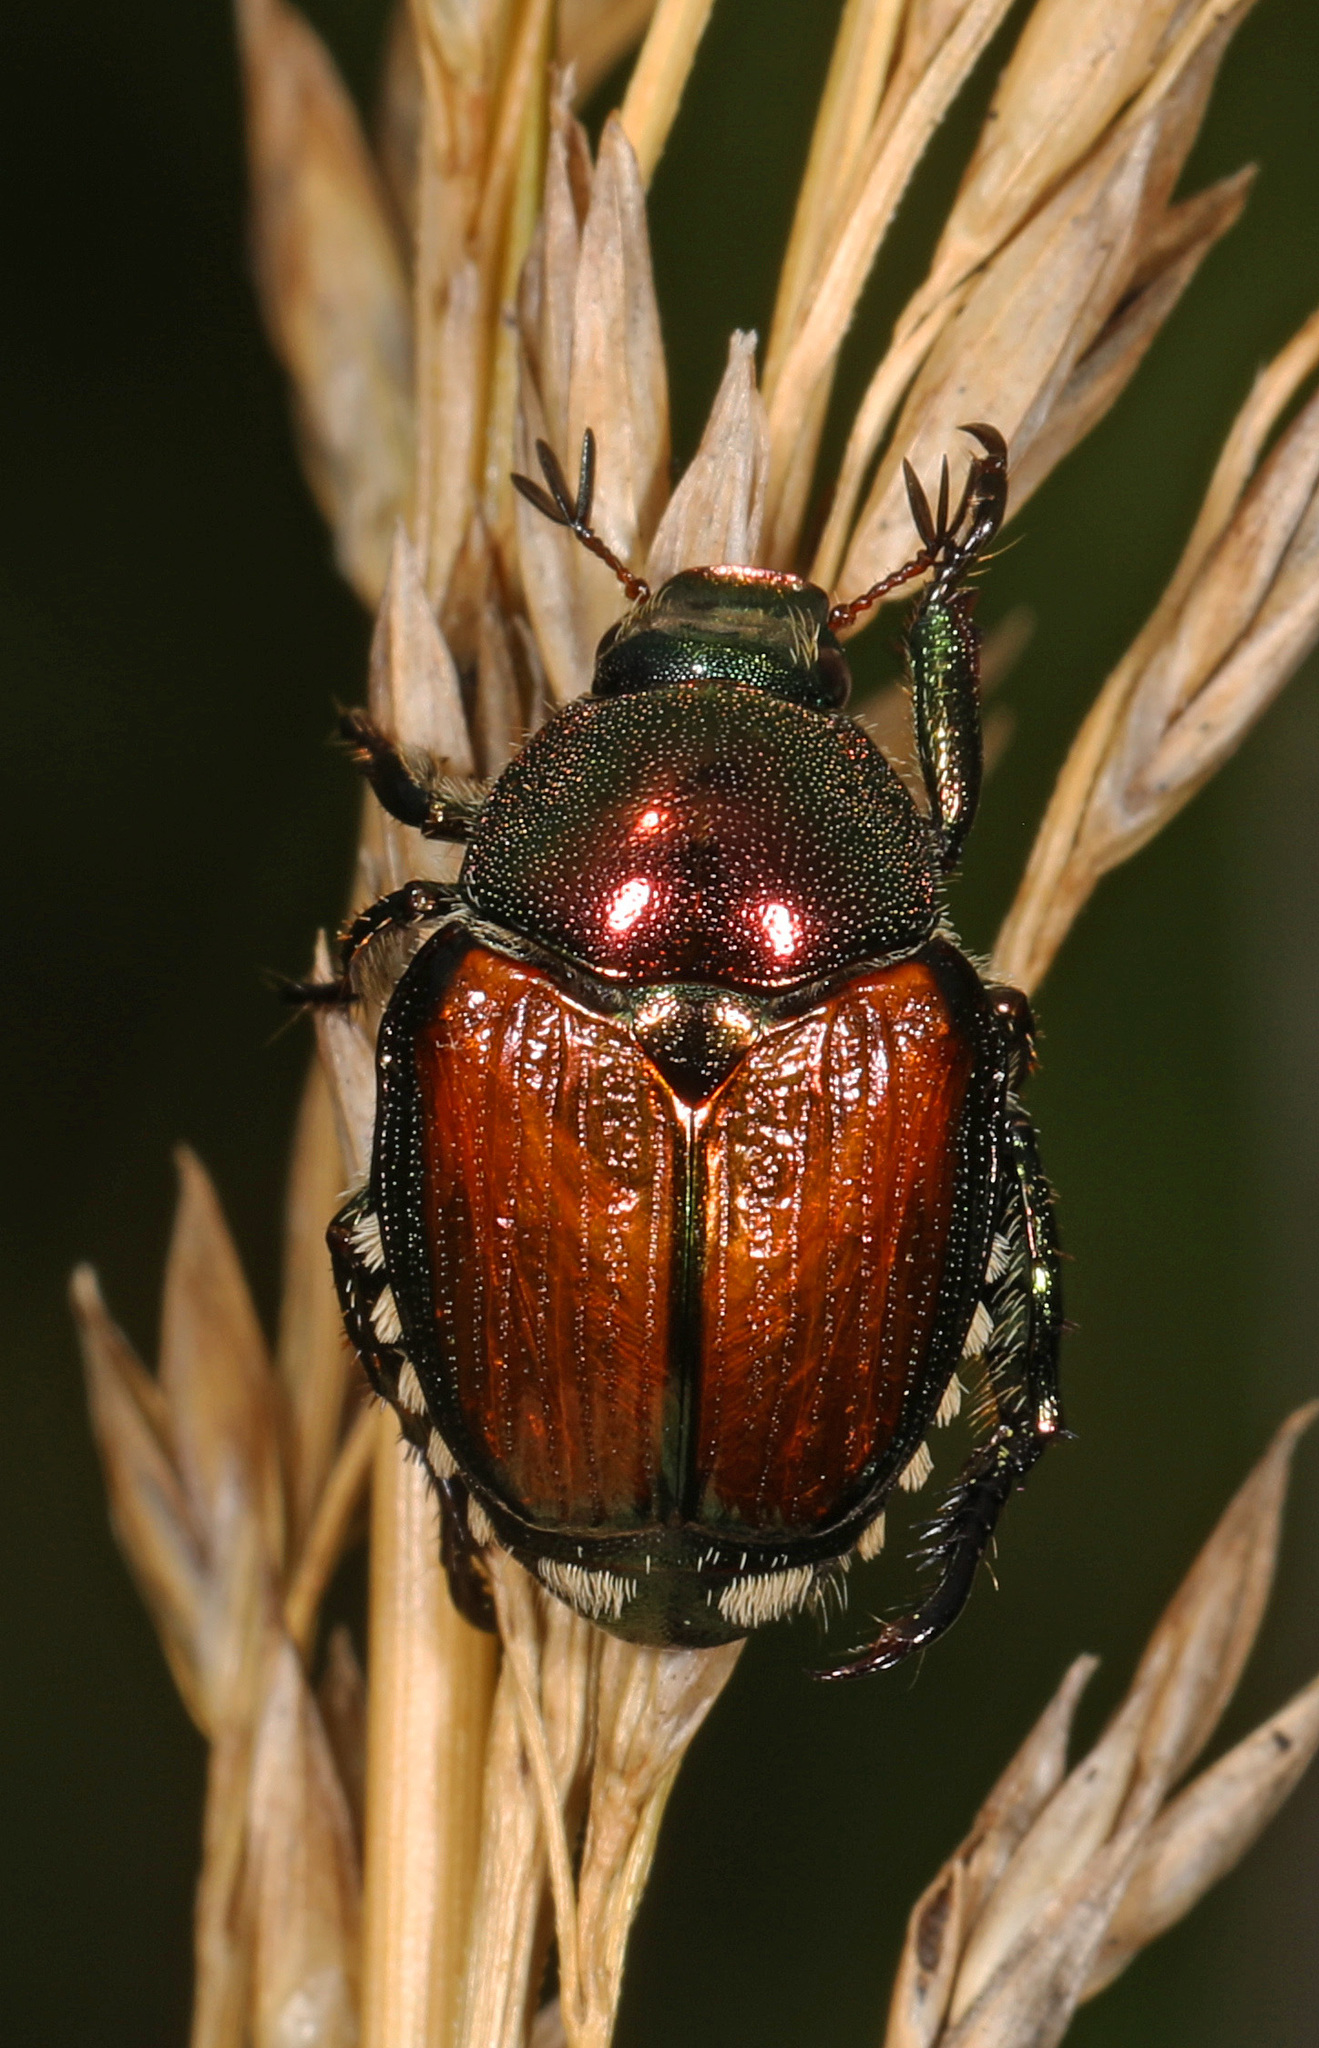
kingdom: Animalia
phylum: Arthropoda
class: Insecta
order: Coleoptera
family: Scarabaeidae
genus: Popillia
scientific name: Popillia japonica
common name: Japanese beetle
